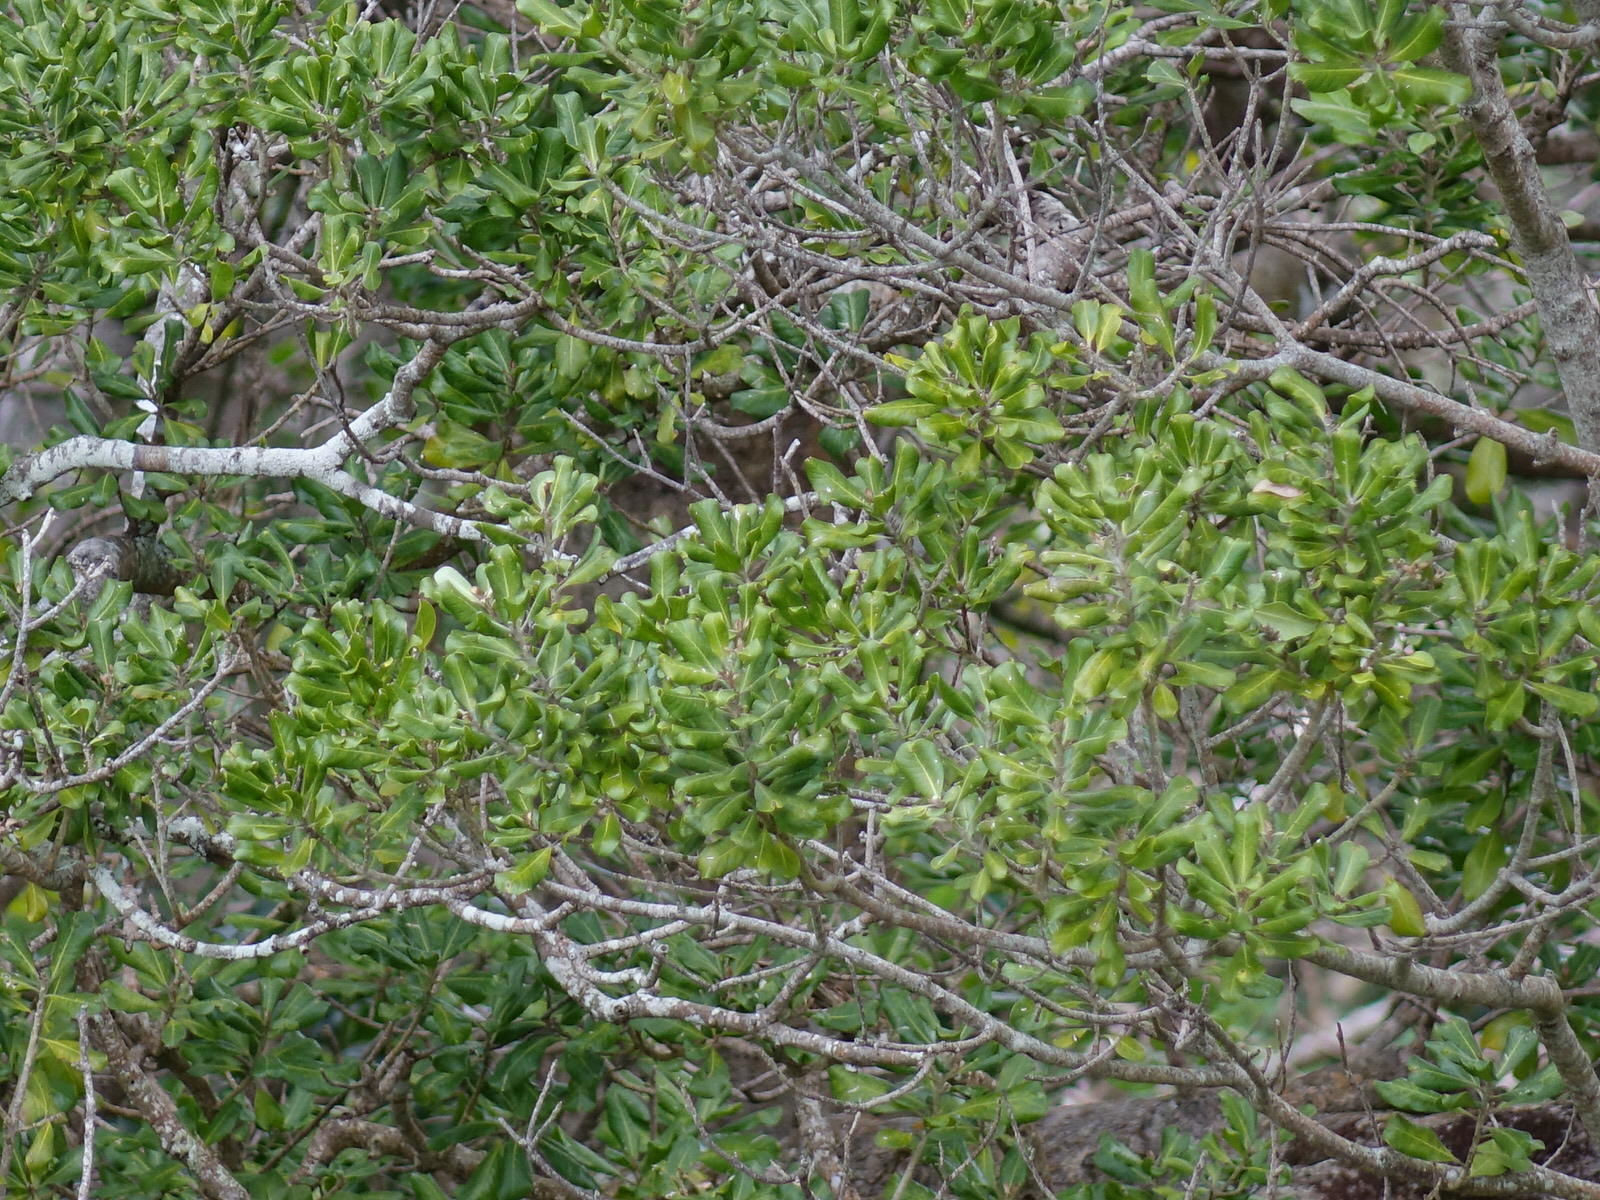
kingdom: Plantae
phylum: Tracheophyta
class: Magnoliopsida
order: Ericales
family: Sapotaceae
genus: Planchonella
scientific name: Planchonella costata
